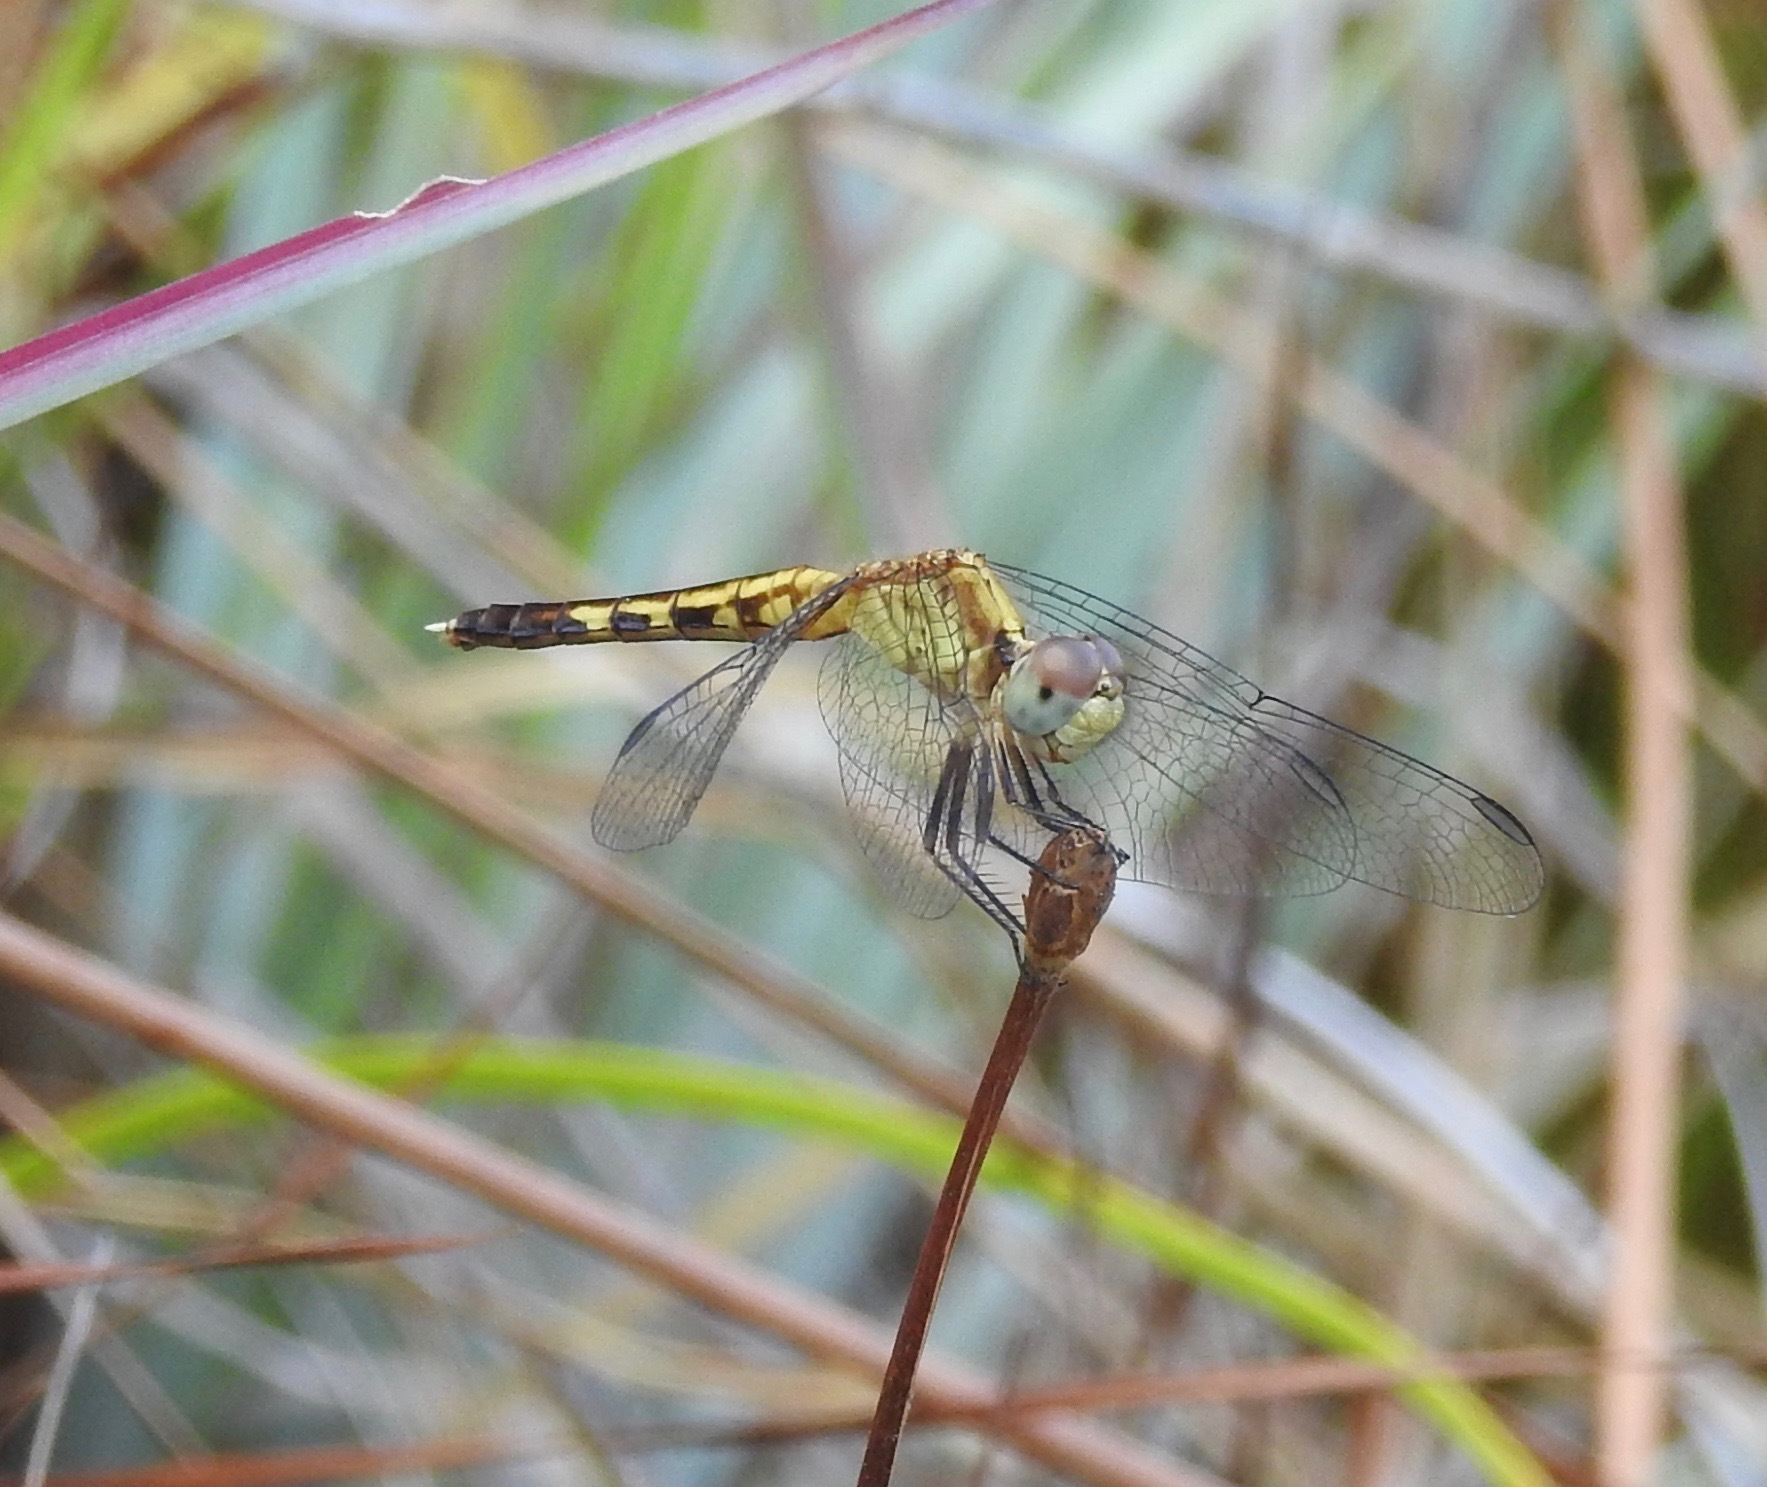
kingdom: Animalia
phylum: Arthropoda
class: Insecta
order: Odonata
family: Libellulidae
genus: Erythrodiplax
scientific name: Erythrodiplax minuscula
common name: Little blue dragonlet
